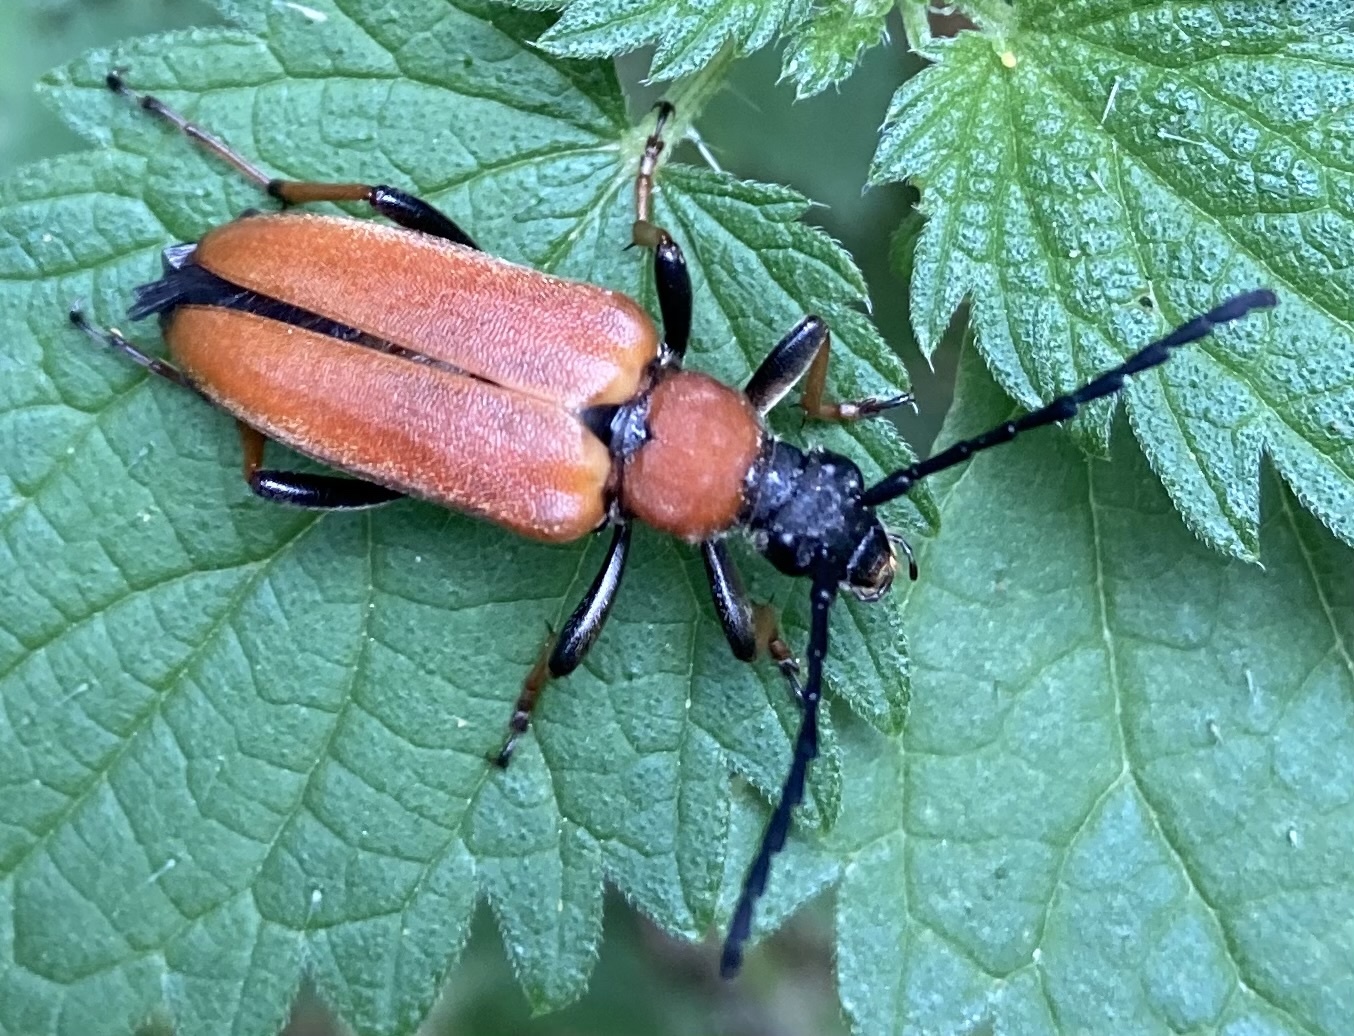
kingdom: Animalia
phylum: Arthropoda
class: Insecta
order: Coleoptera
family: Cerambycidae
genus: Stictoleptura
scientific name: Stictoleptura rubra
